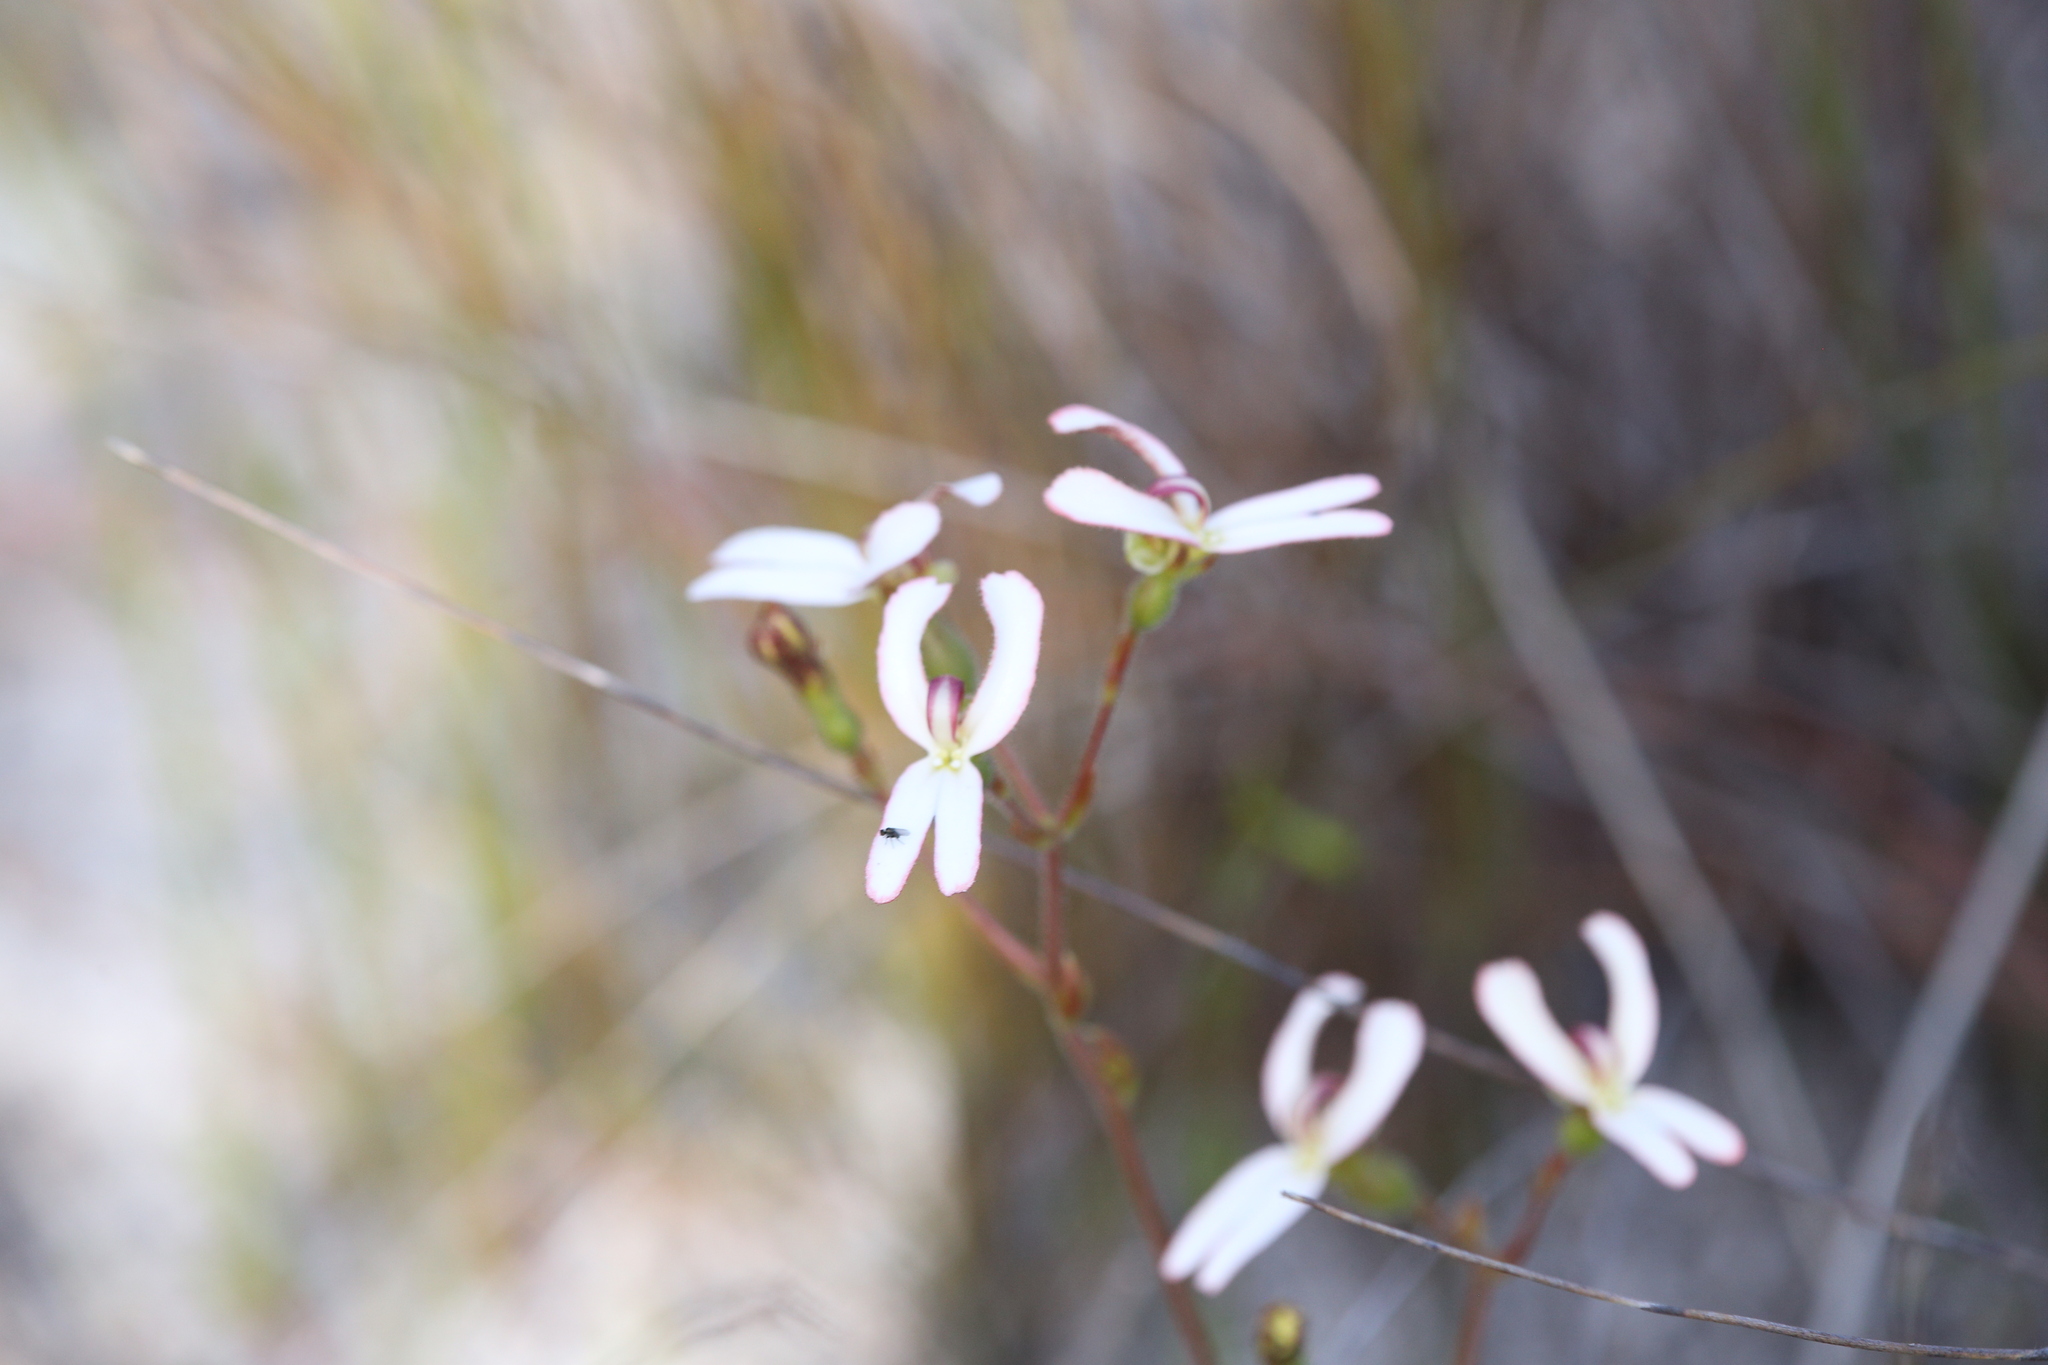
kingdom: Plantae
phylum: Tracheophyta
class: Magnoliopsida
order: Asterales
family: Stylidiaceae
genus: Stylidium
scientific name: Stylidium schoenoides
